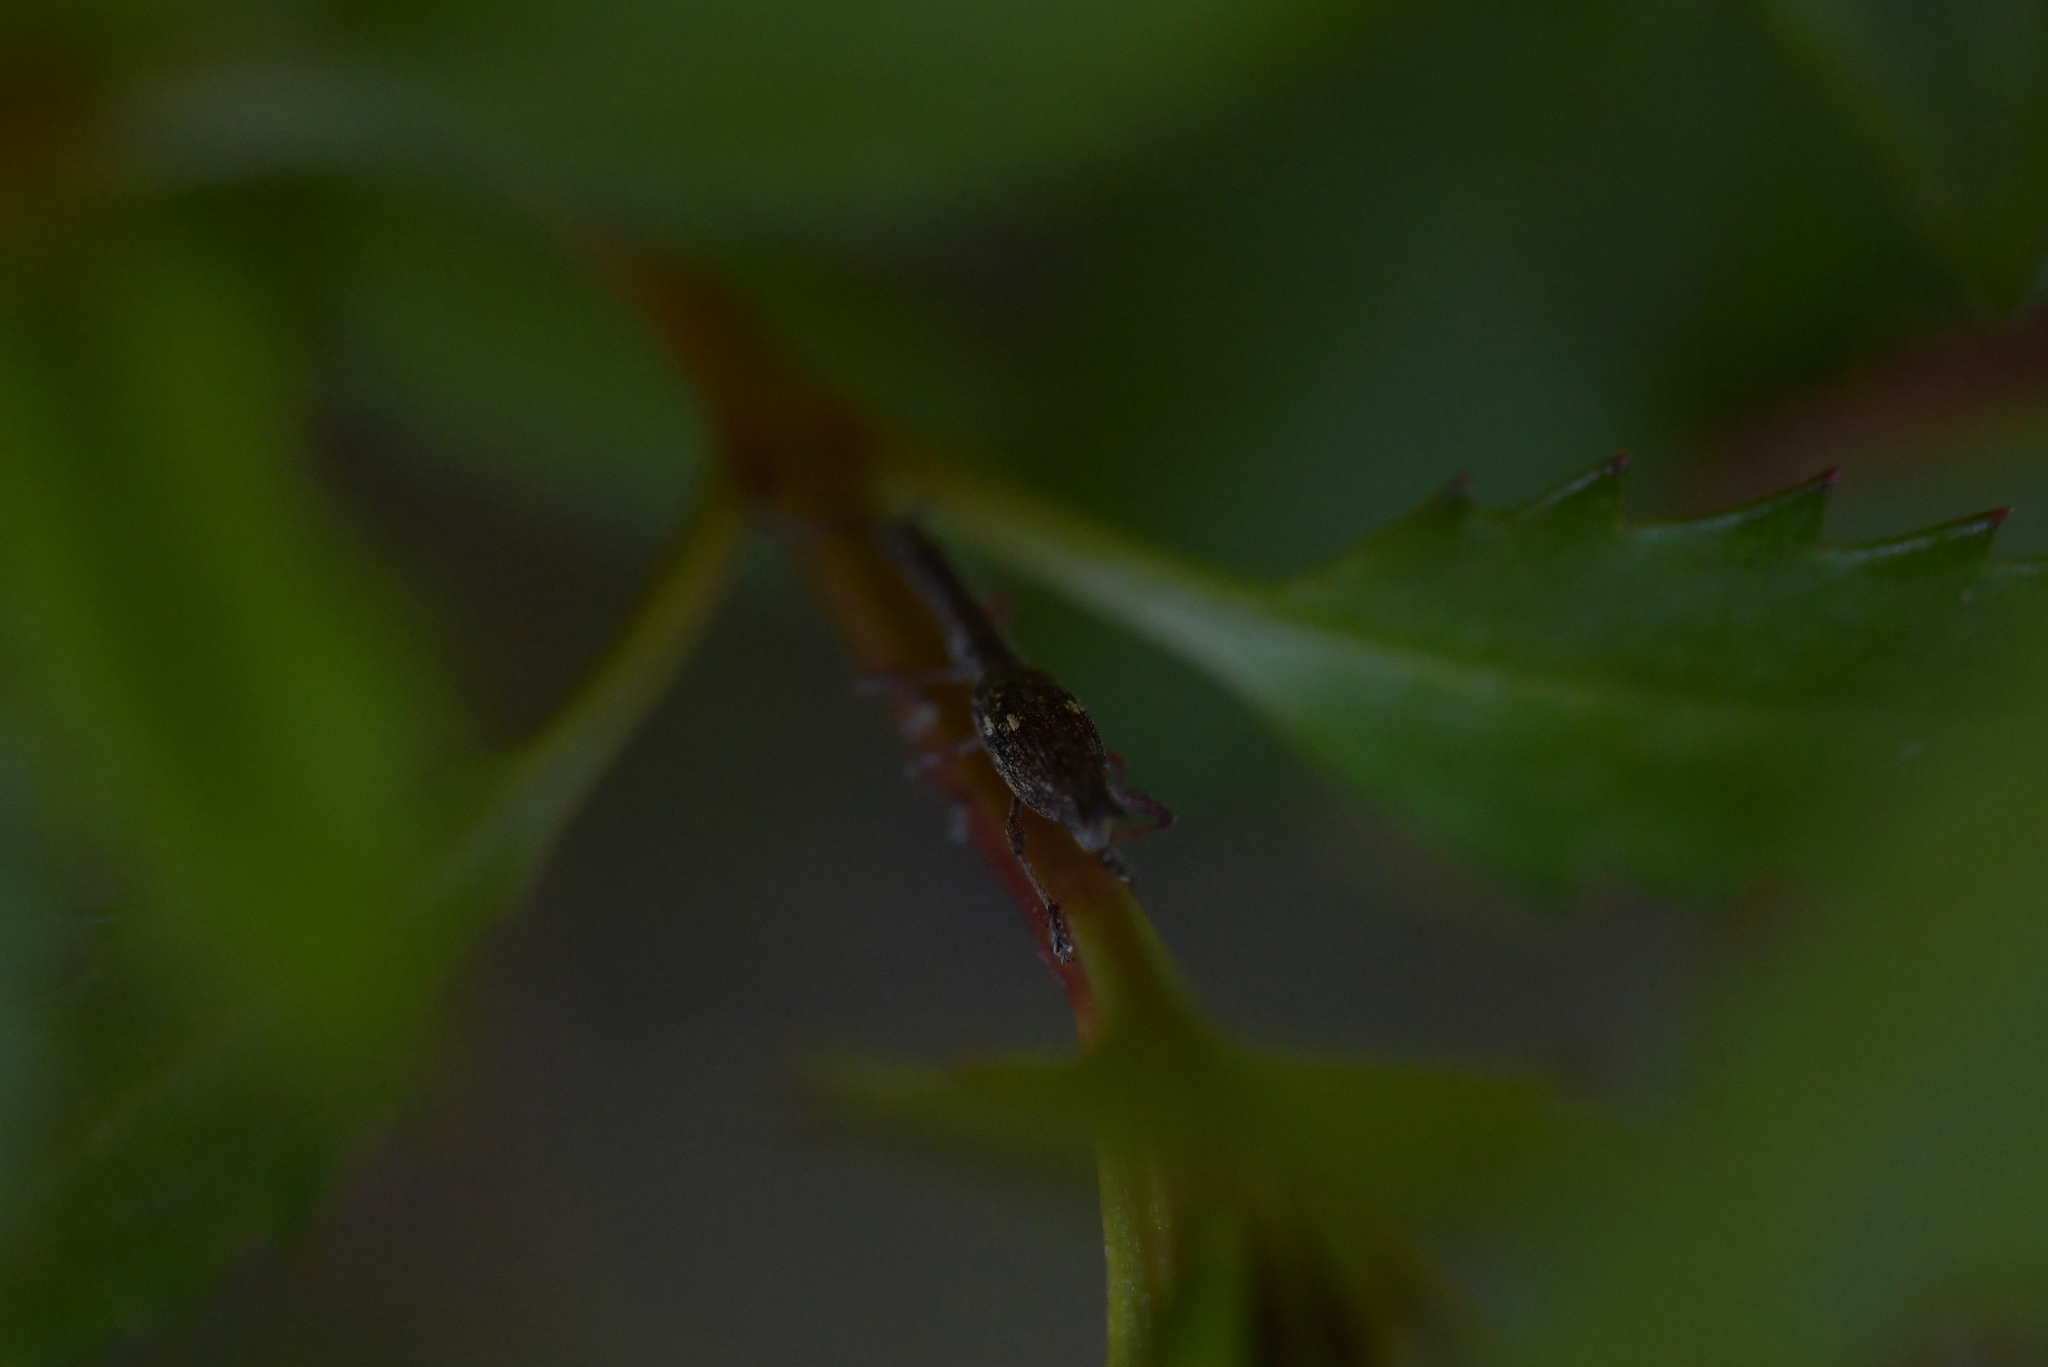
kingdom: Animalia
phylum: Arthropoda
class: Insecta
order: Coleoptera
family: Curculionidae
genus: Rhadinosomus
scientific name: Rhadinosomus acuminatus
